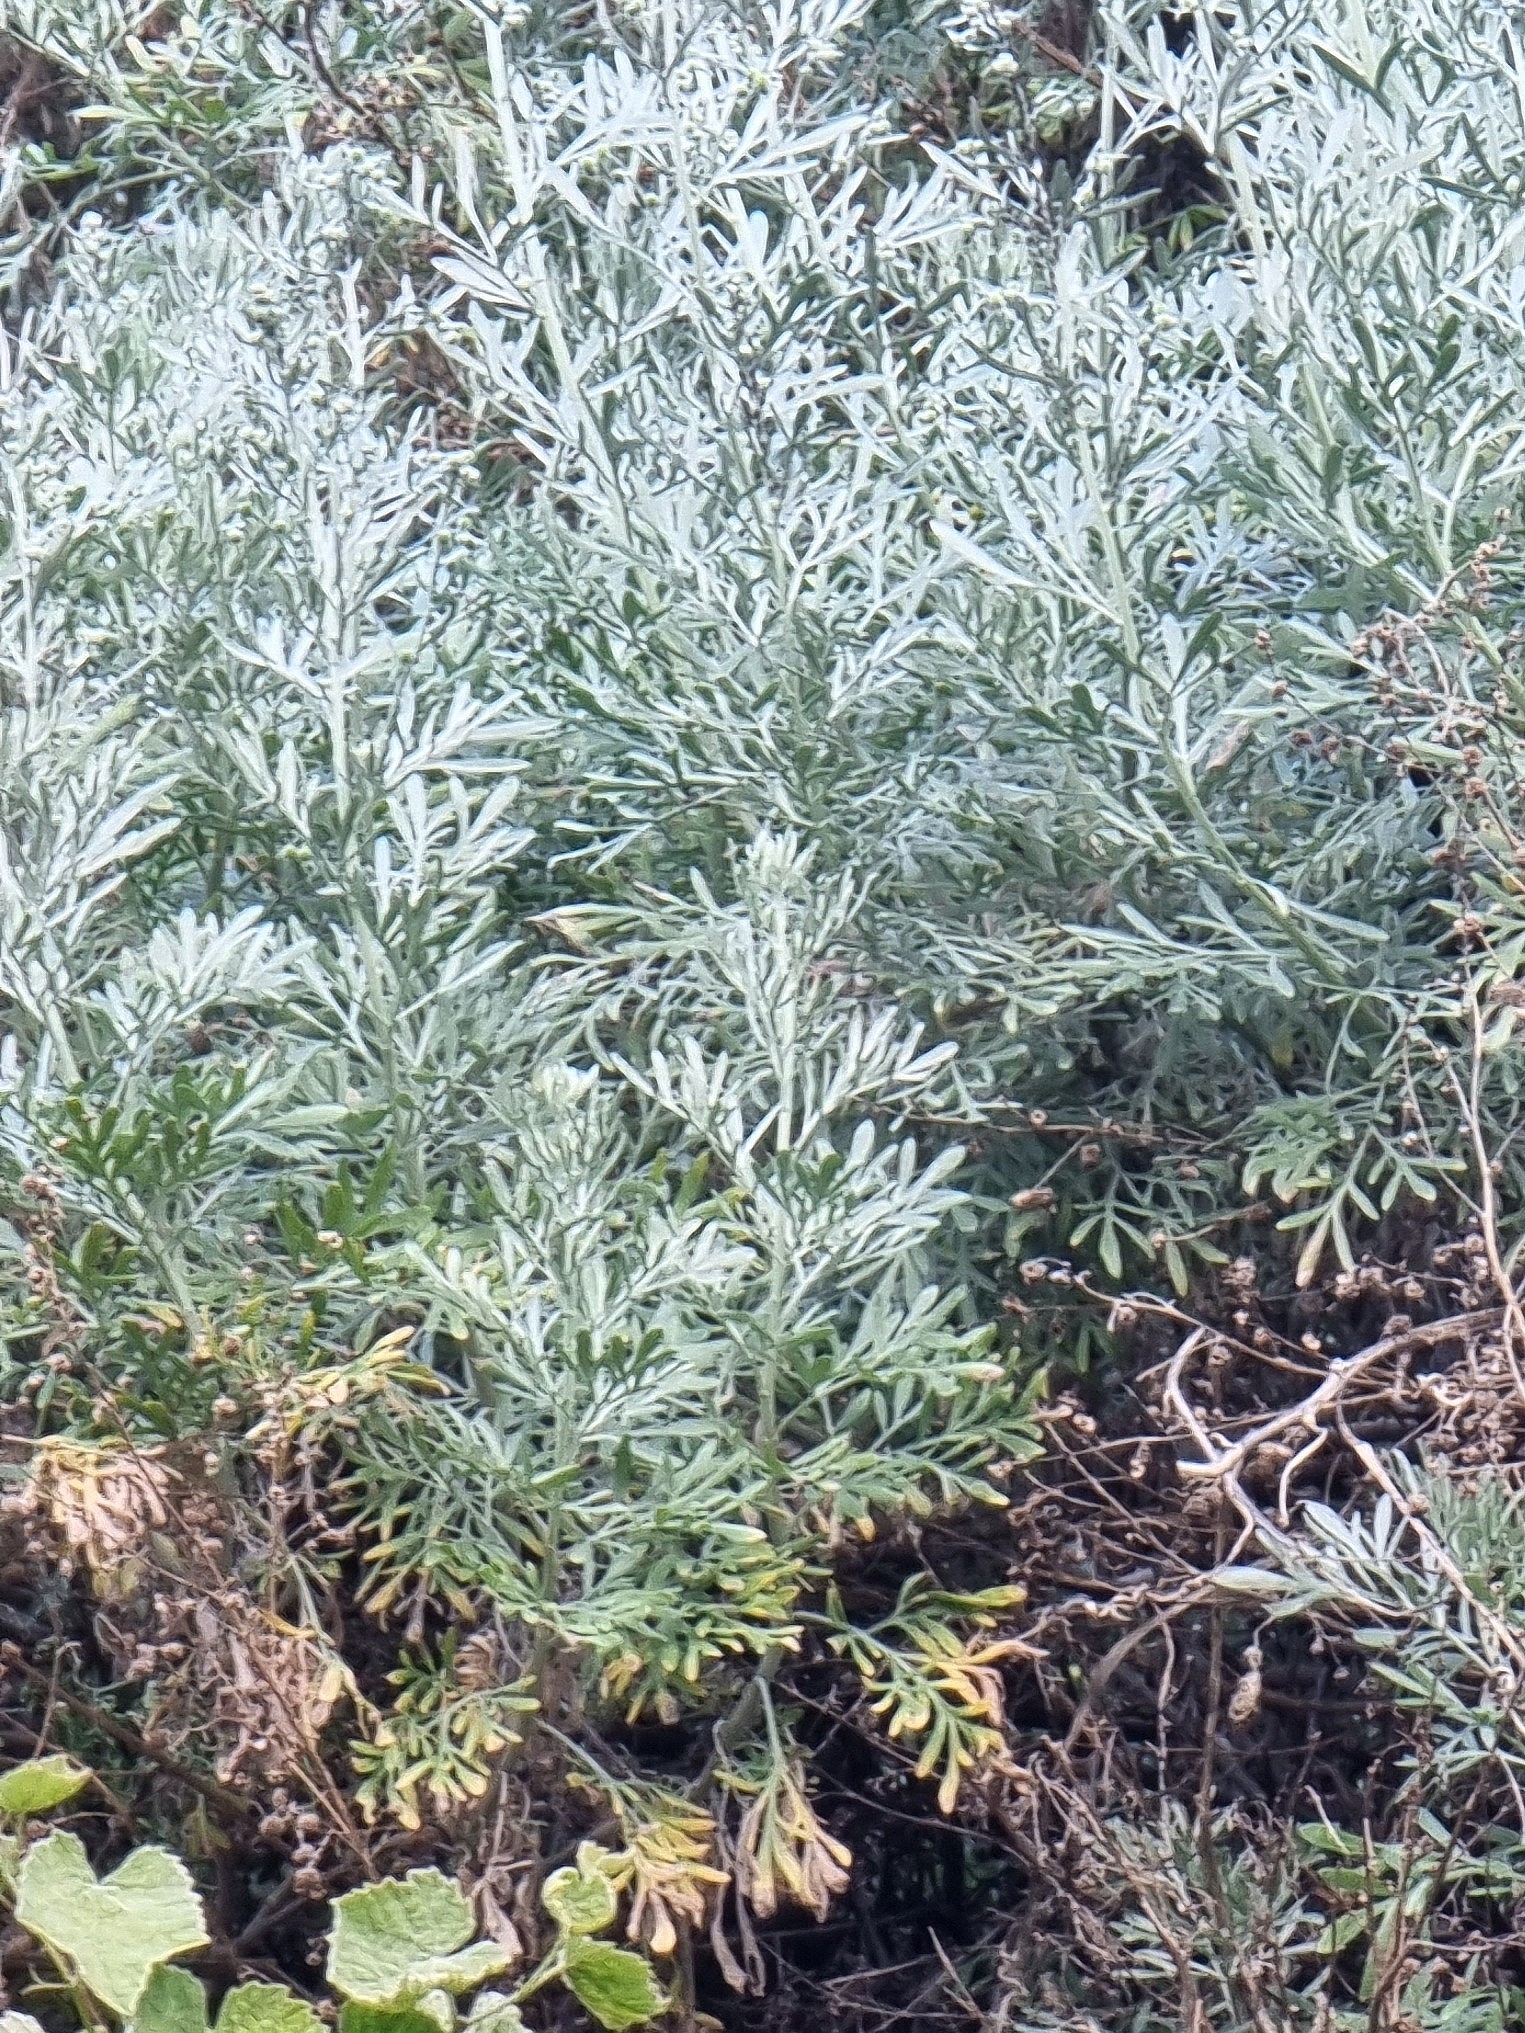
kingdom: Plantae
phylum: Tracheophyta
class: Magnoliopsida
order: Asterales
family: Asteraceae
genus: Artemisia
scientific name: Artemisia argentea
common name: Madeira wormwood
